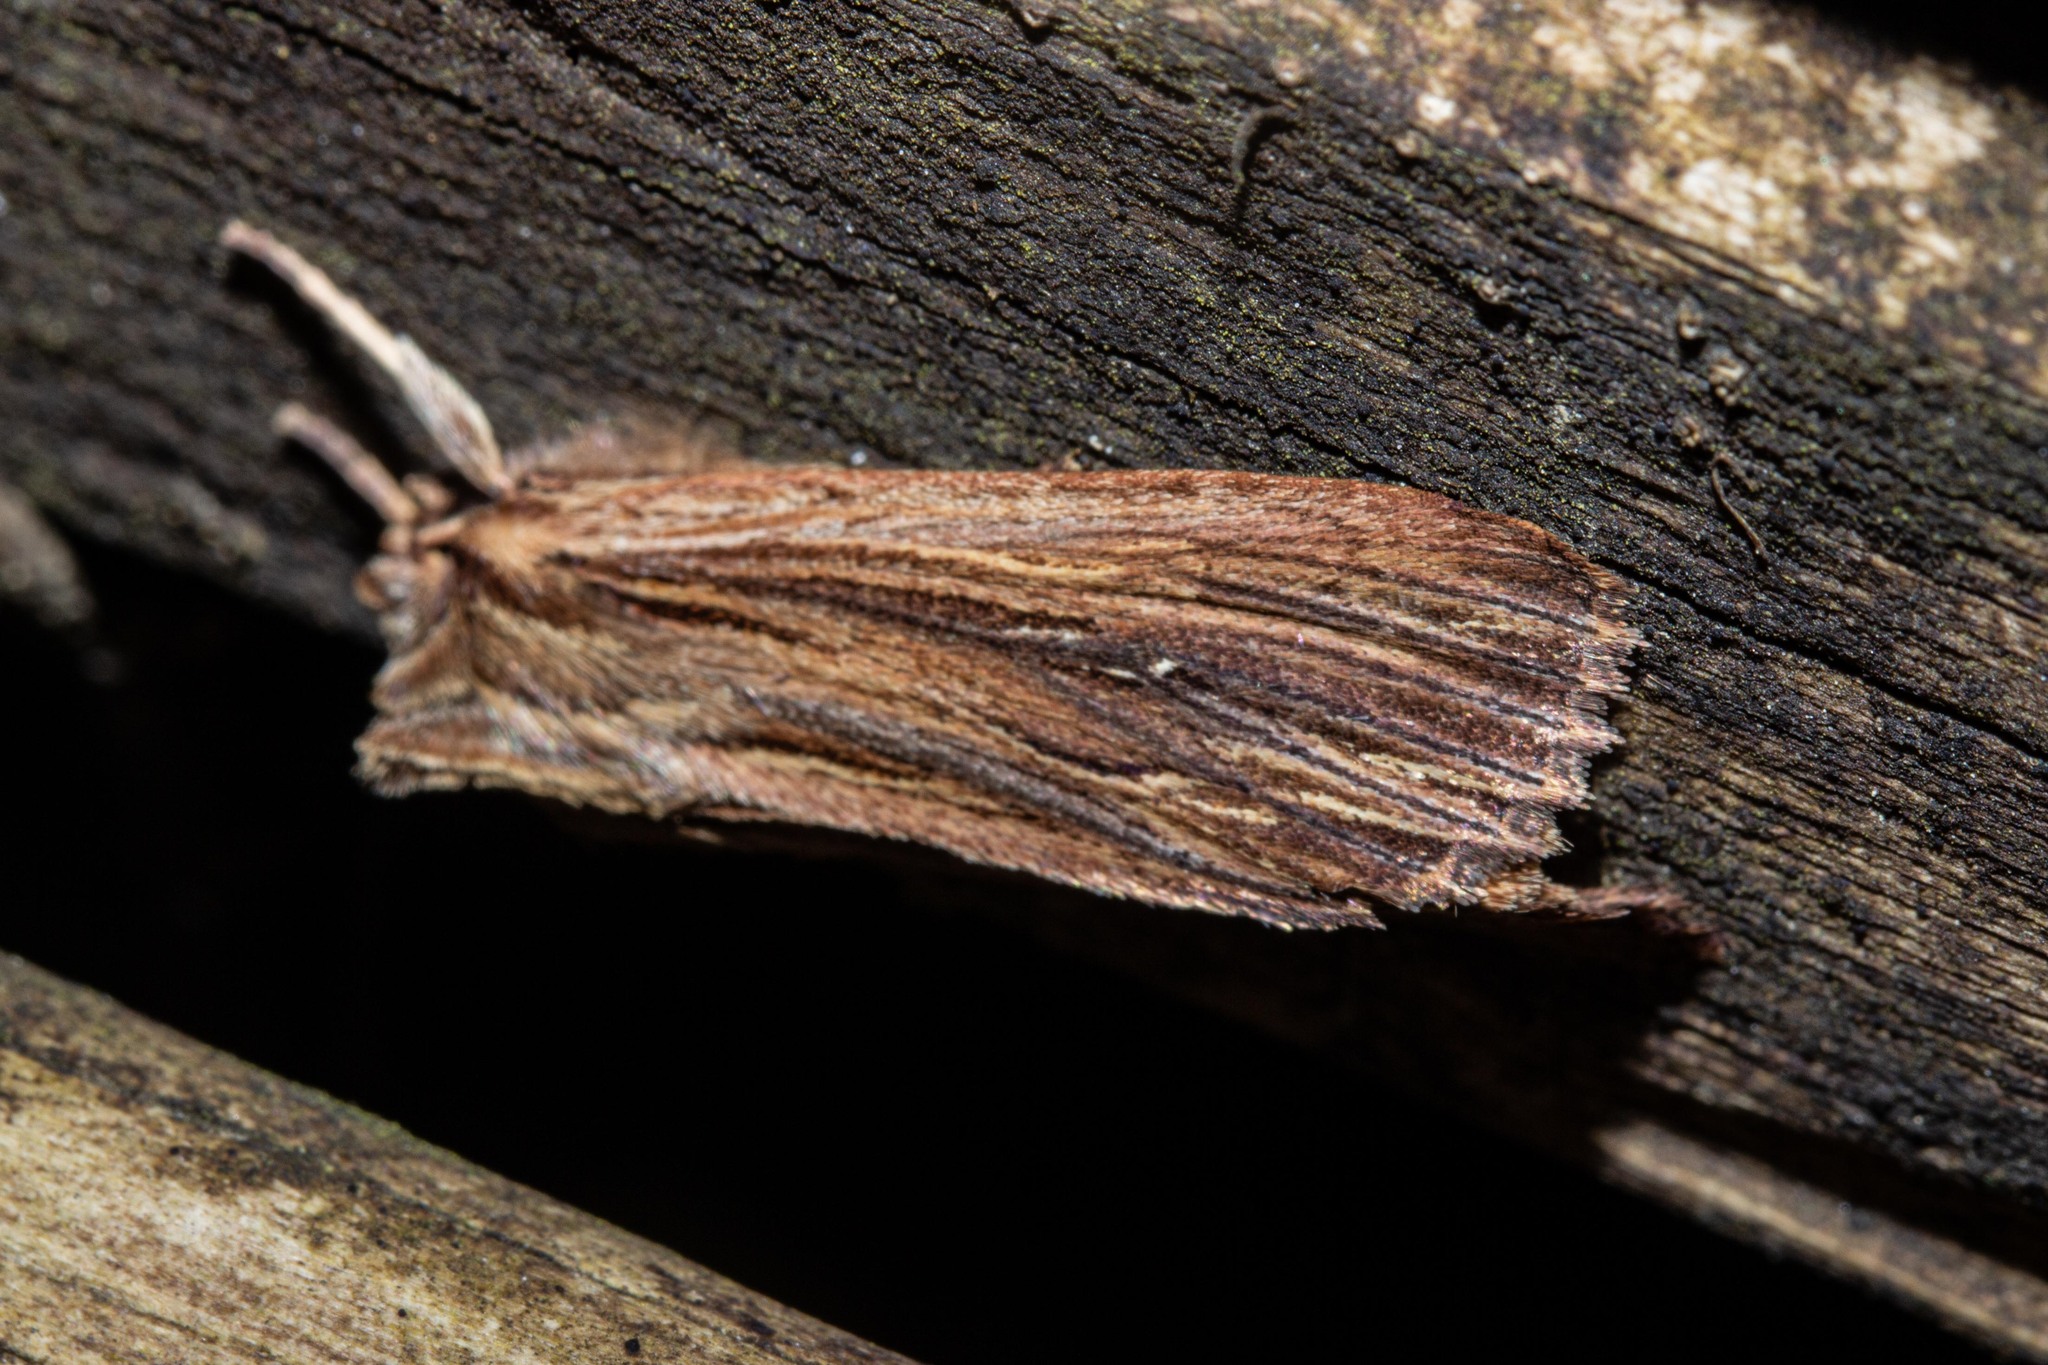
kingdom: Animalia
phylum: Arthropoda
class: Insecta
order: Lepidoptera
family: Noctuidae
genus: Ichneutica
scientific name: Ichneutica
